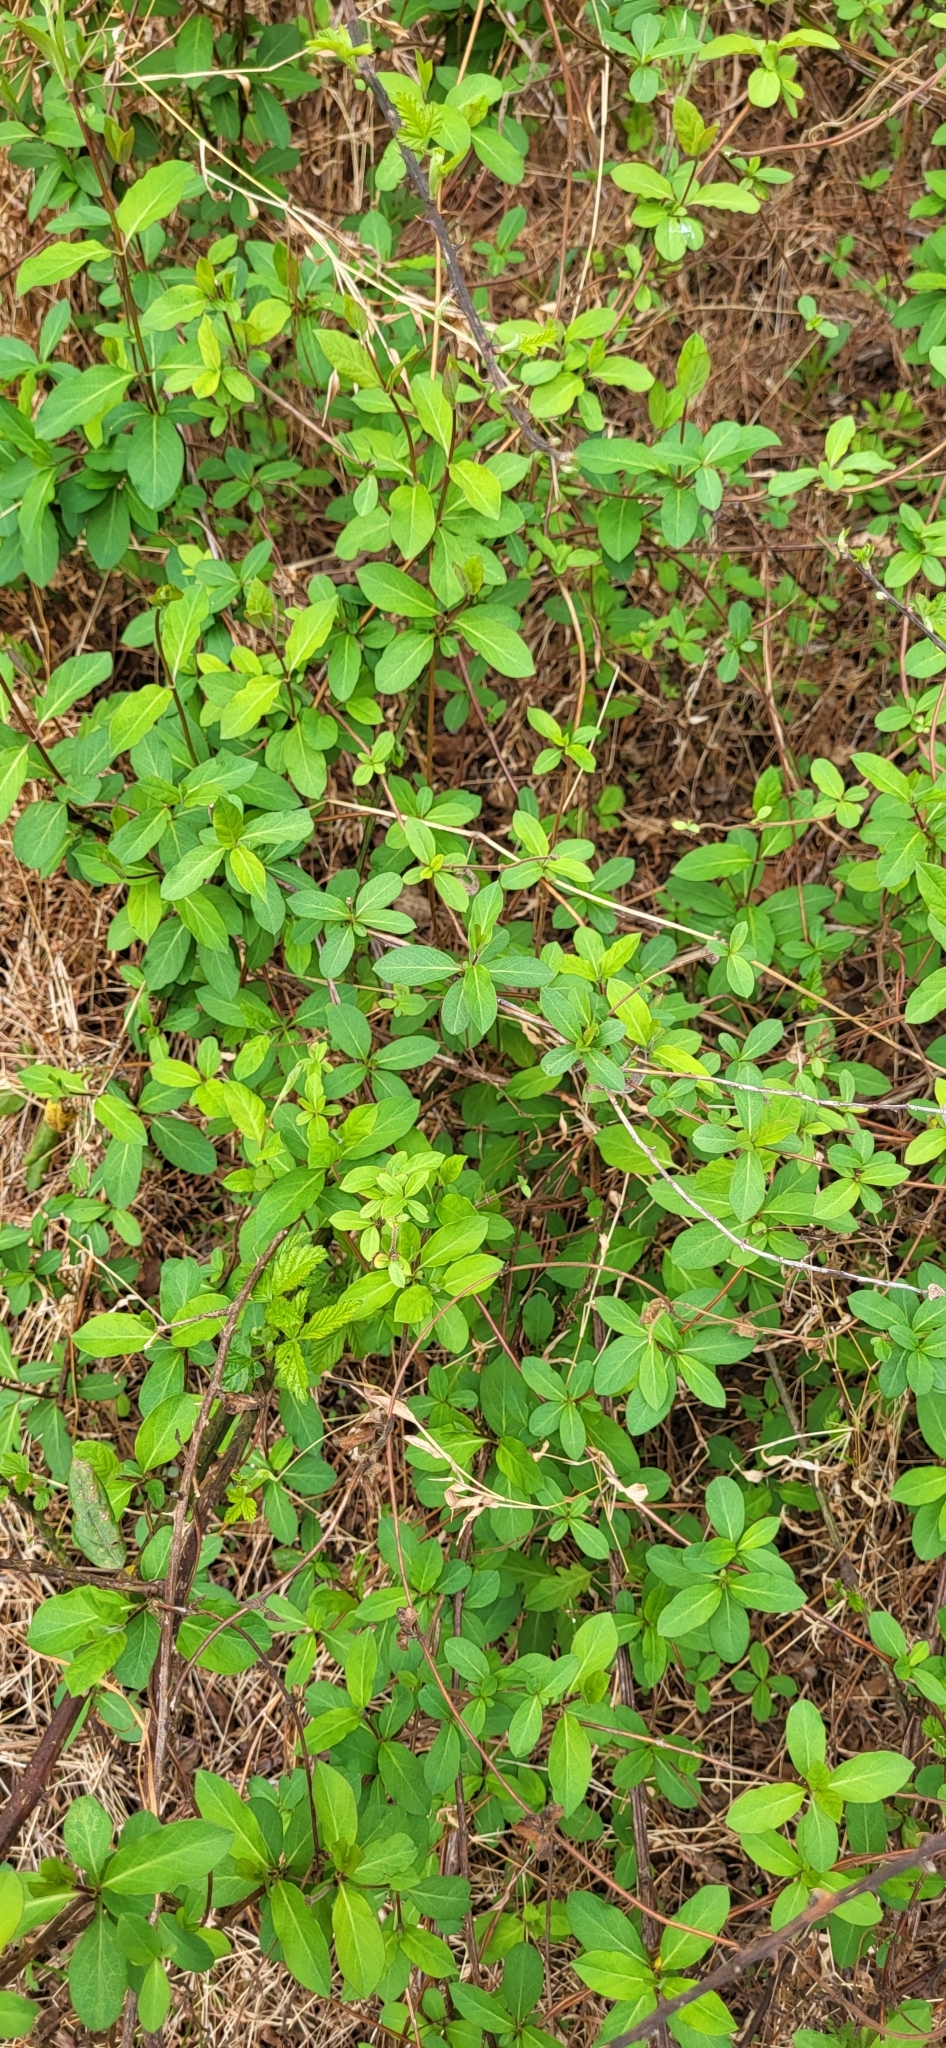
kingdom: Plantae
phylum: Tracheophyta
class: Magnoliopsida
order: Dipsacales
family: Caprifoliaceae
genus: Lonicera
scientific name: Lonicera japonica
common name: Japanese honeysuckle
